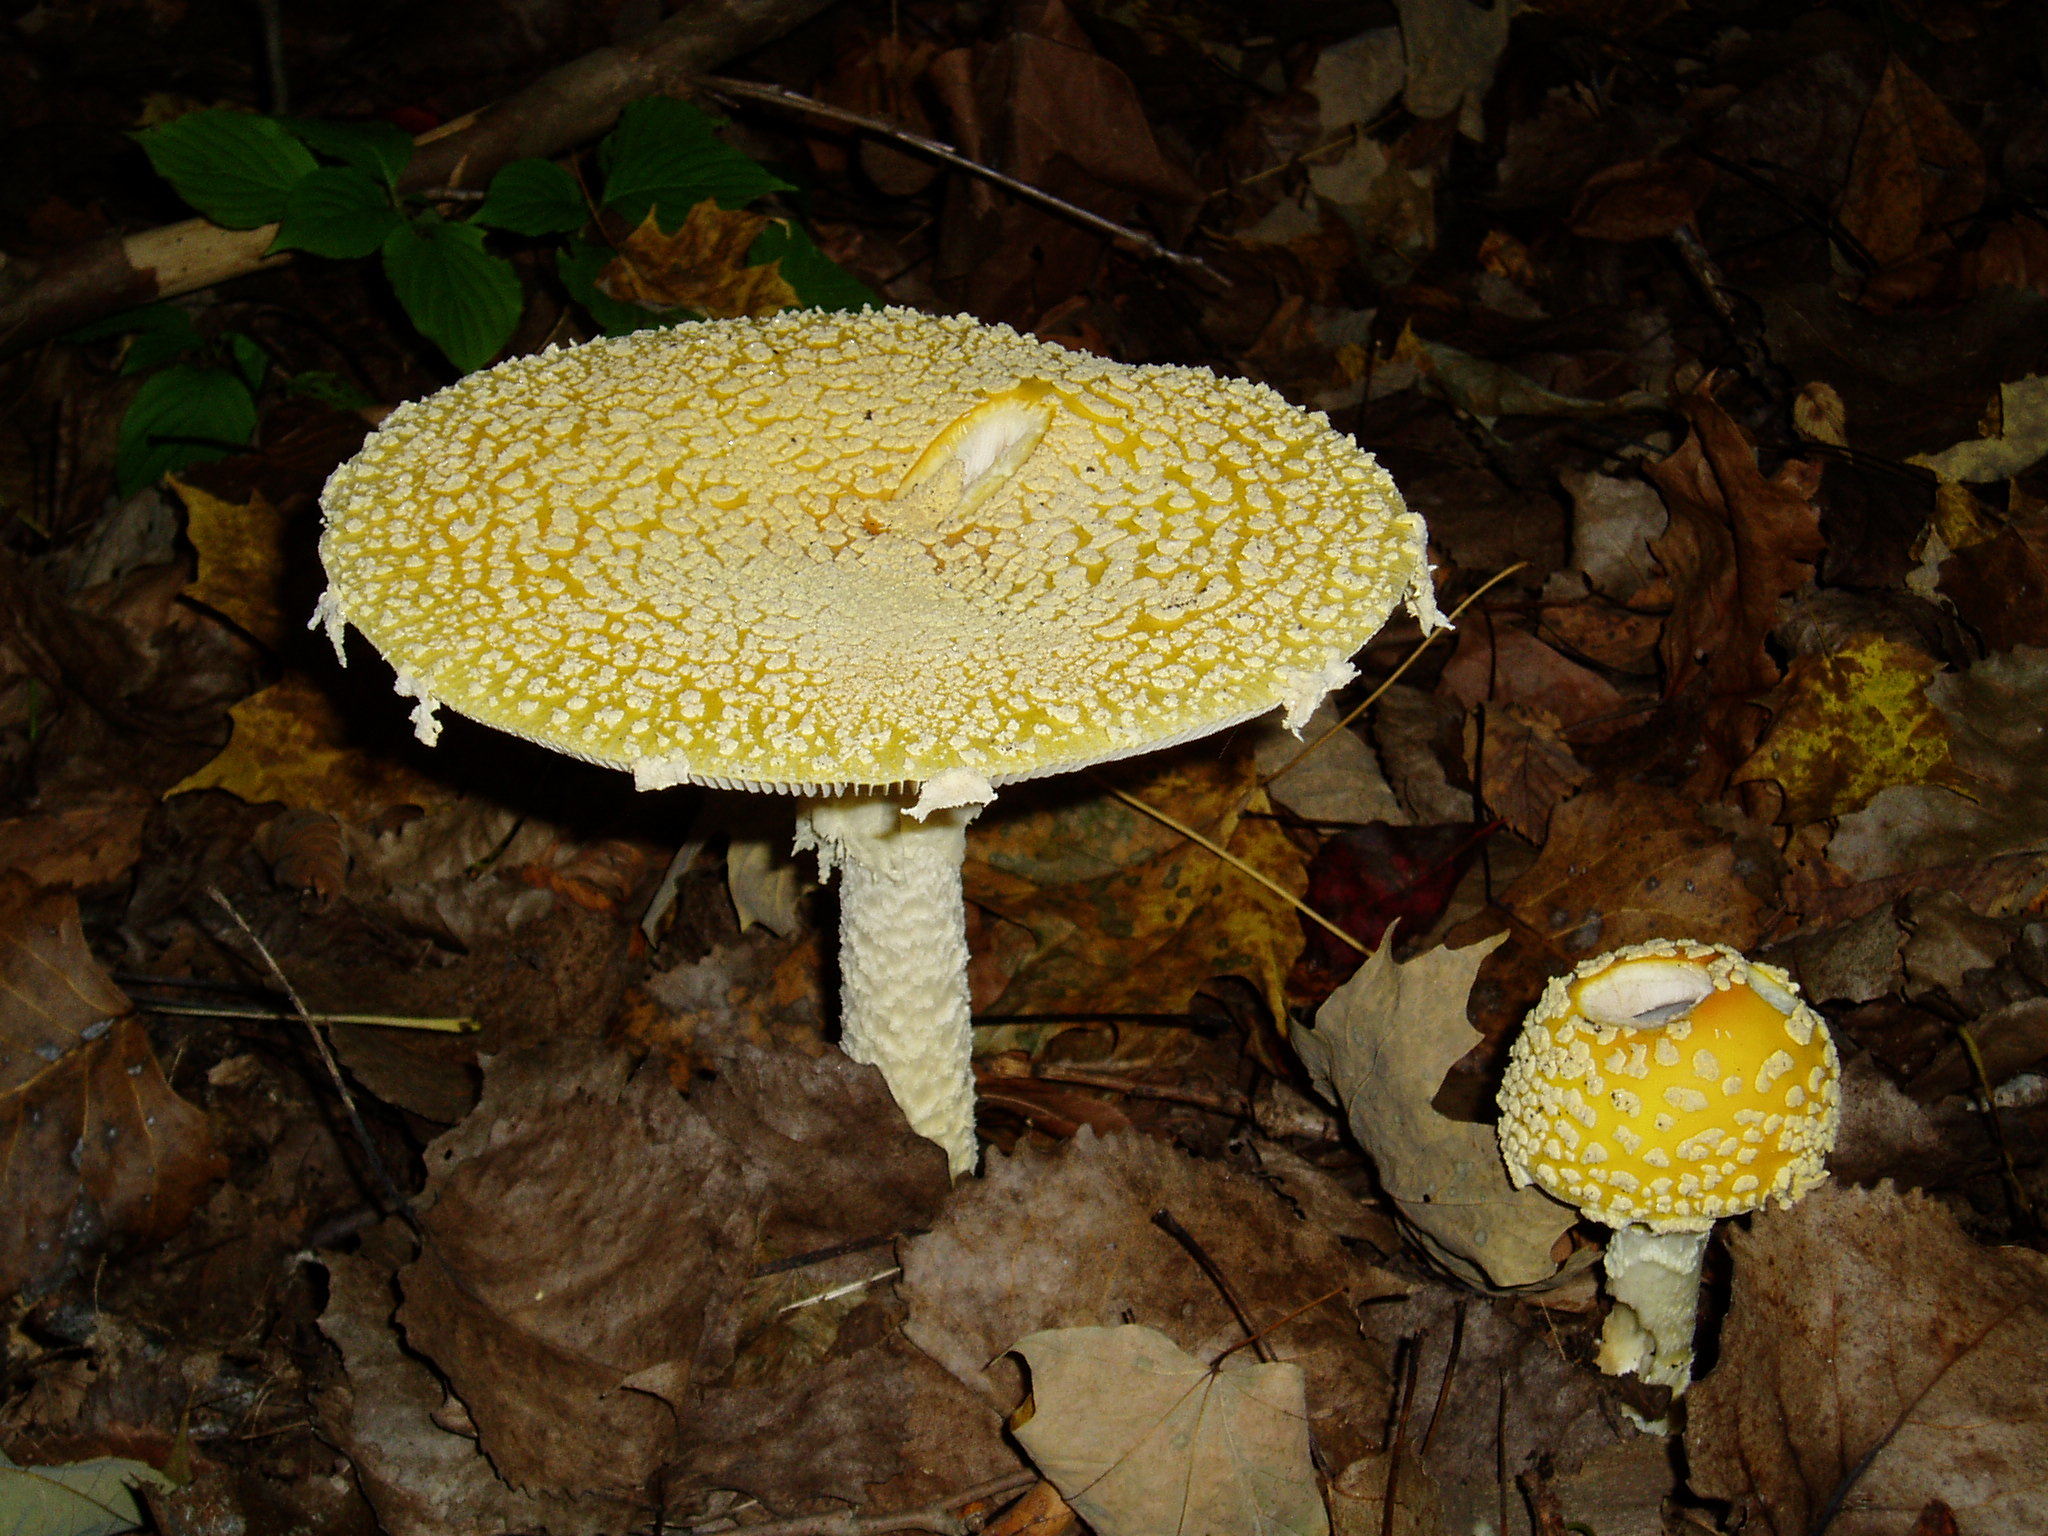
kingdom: Fungi
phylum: Basidiomycota
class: Agaricomycetes
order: Agaricales
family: Amanitaceae
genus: Amanita
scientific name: Amanita muscaria
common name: Fly agaric
